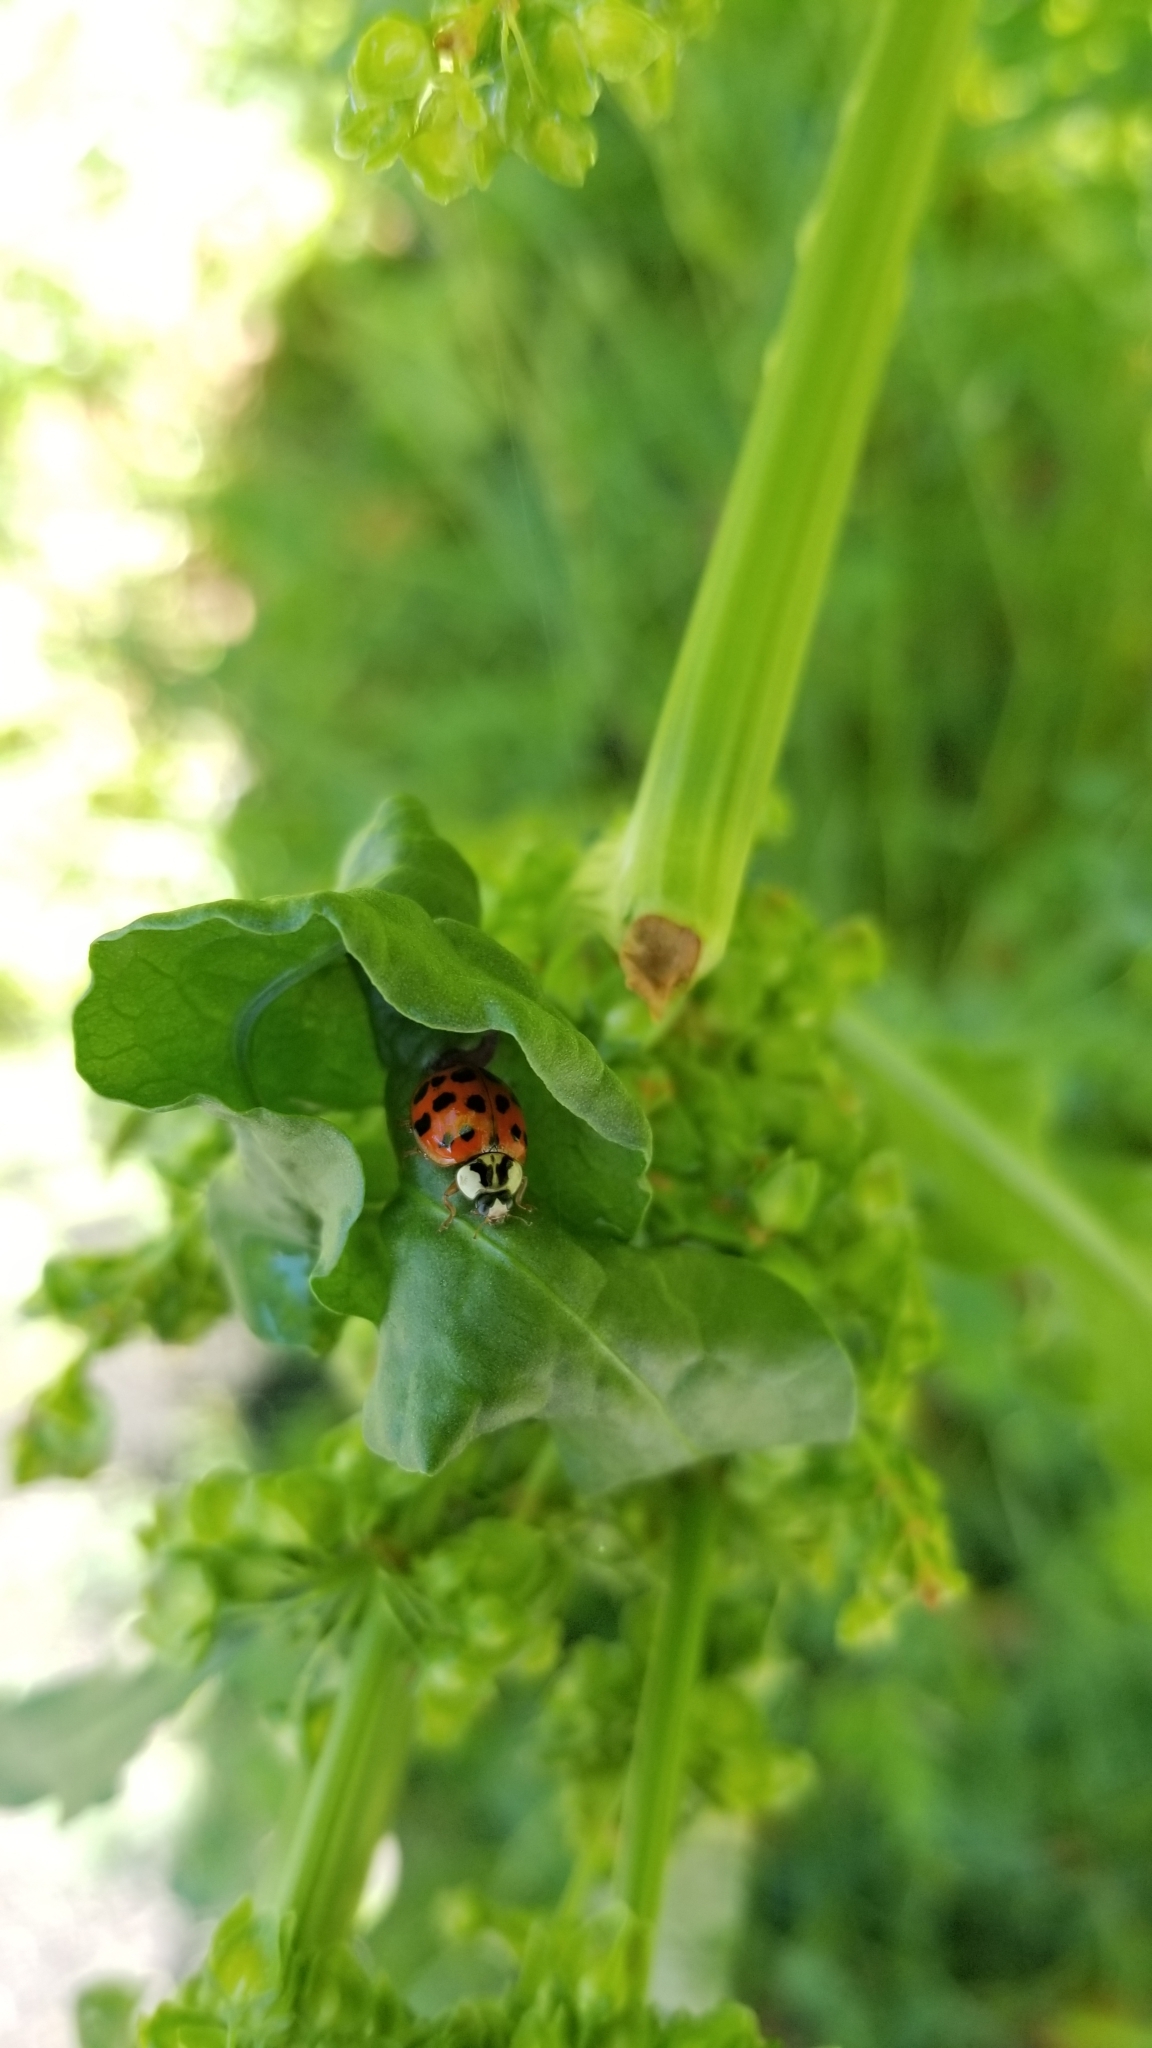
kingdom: Animalia
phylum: Arthropoda
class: Insecta
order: Coleoptera
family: Coccinellidae
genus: Harmonia
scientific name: Harmonia axyridis
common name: Harlequin ladybird
